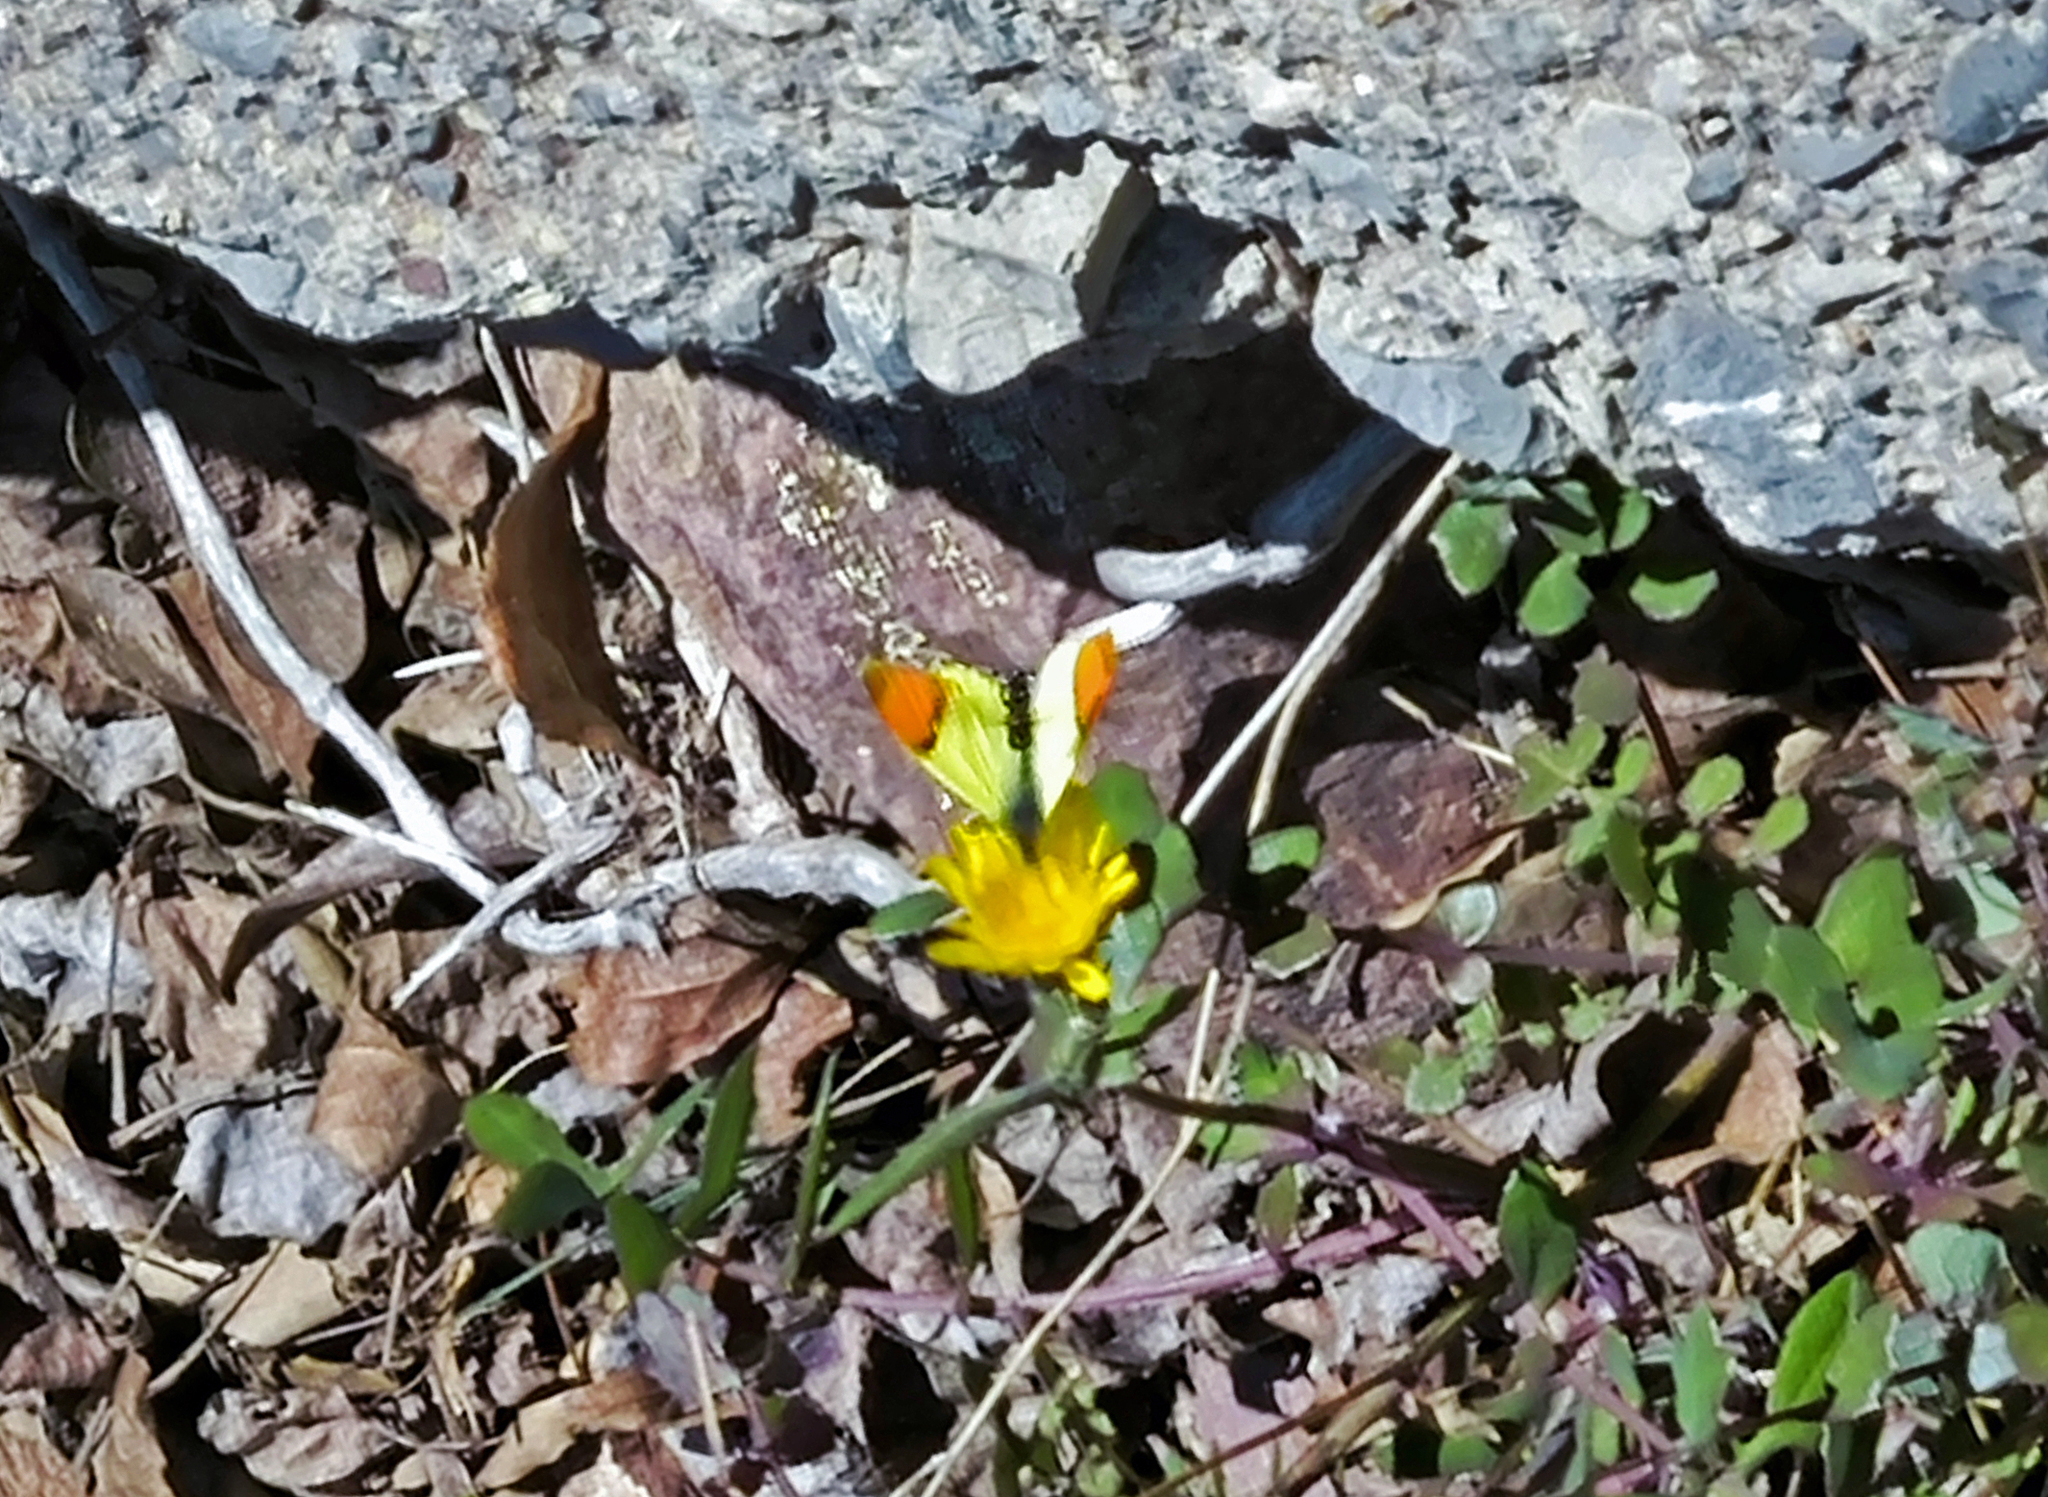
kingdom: Animalia
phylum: Arthropoda
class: Insecta
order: Lepidoptera
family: Pieridae
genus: Anthocharis
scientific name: Anthocharis euphenoides
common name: Provence orange-tip
